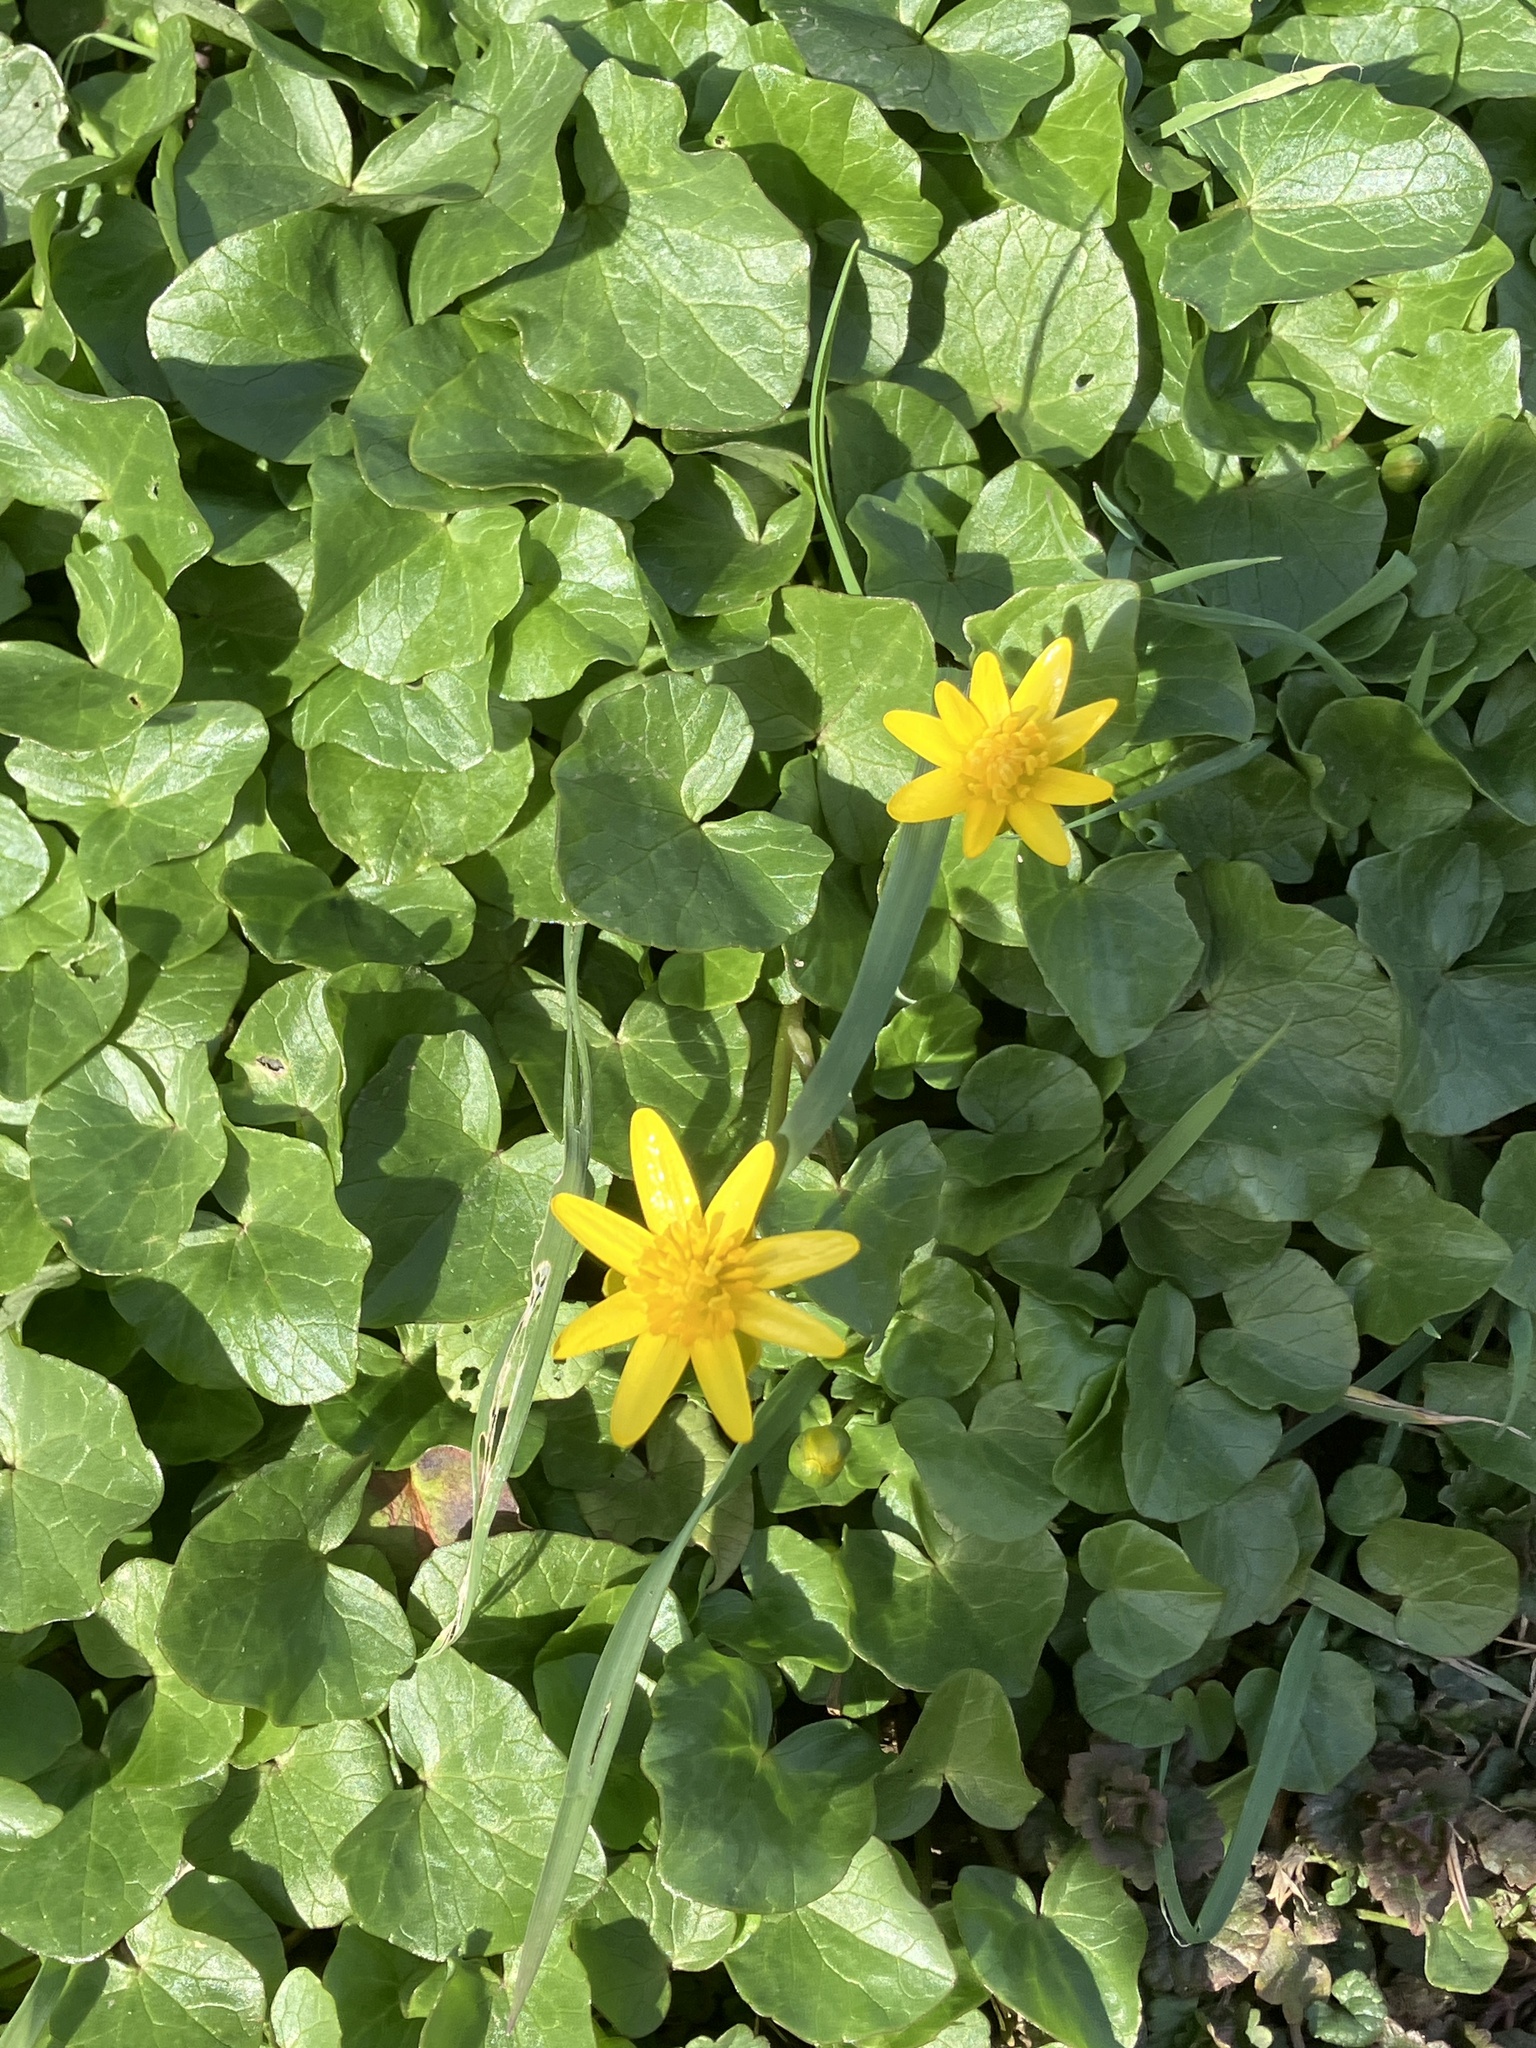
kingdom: Plantae
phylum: Tracheophyta
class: Magnoliopsida
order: Ranunculales
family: Ranunculaceae
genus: Ficaria
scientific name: Ficaria verna
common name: Lesser celandine
